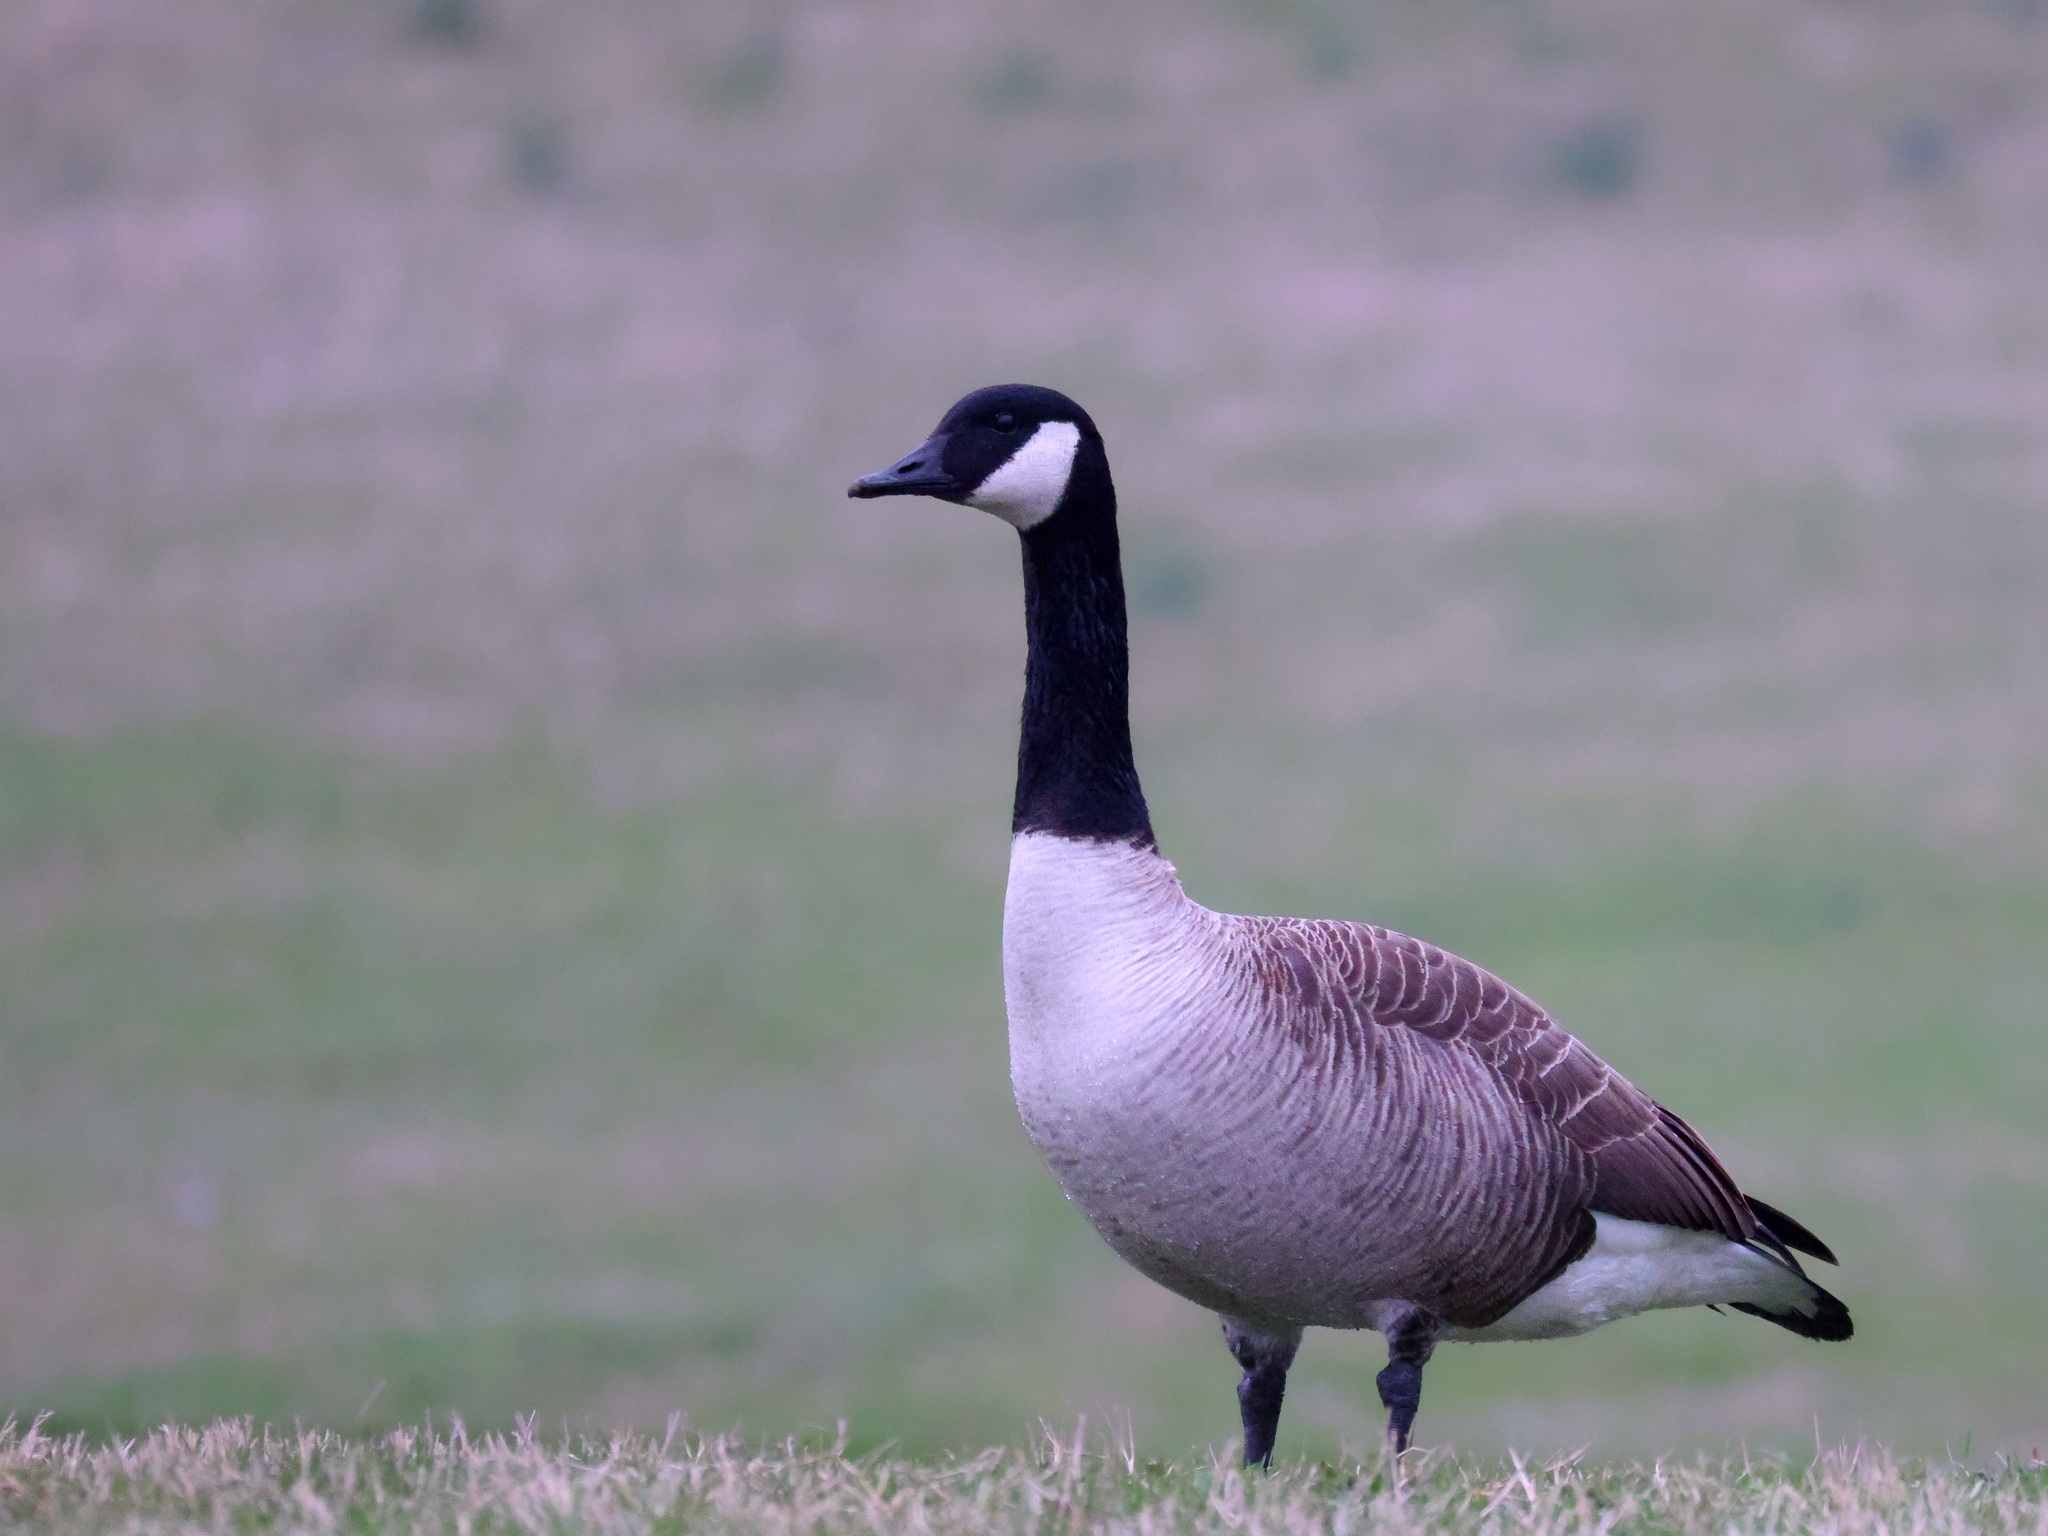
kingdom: Animalia
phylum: Chordata
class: Aves
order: Anseriformes
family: Anatidae
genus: Branta
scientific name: Branta canadensis
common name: Canada goose
